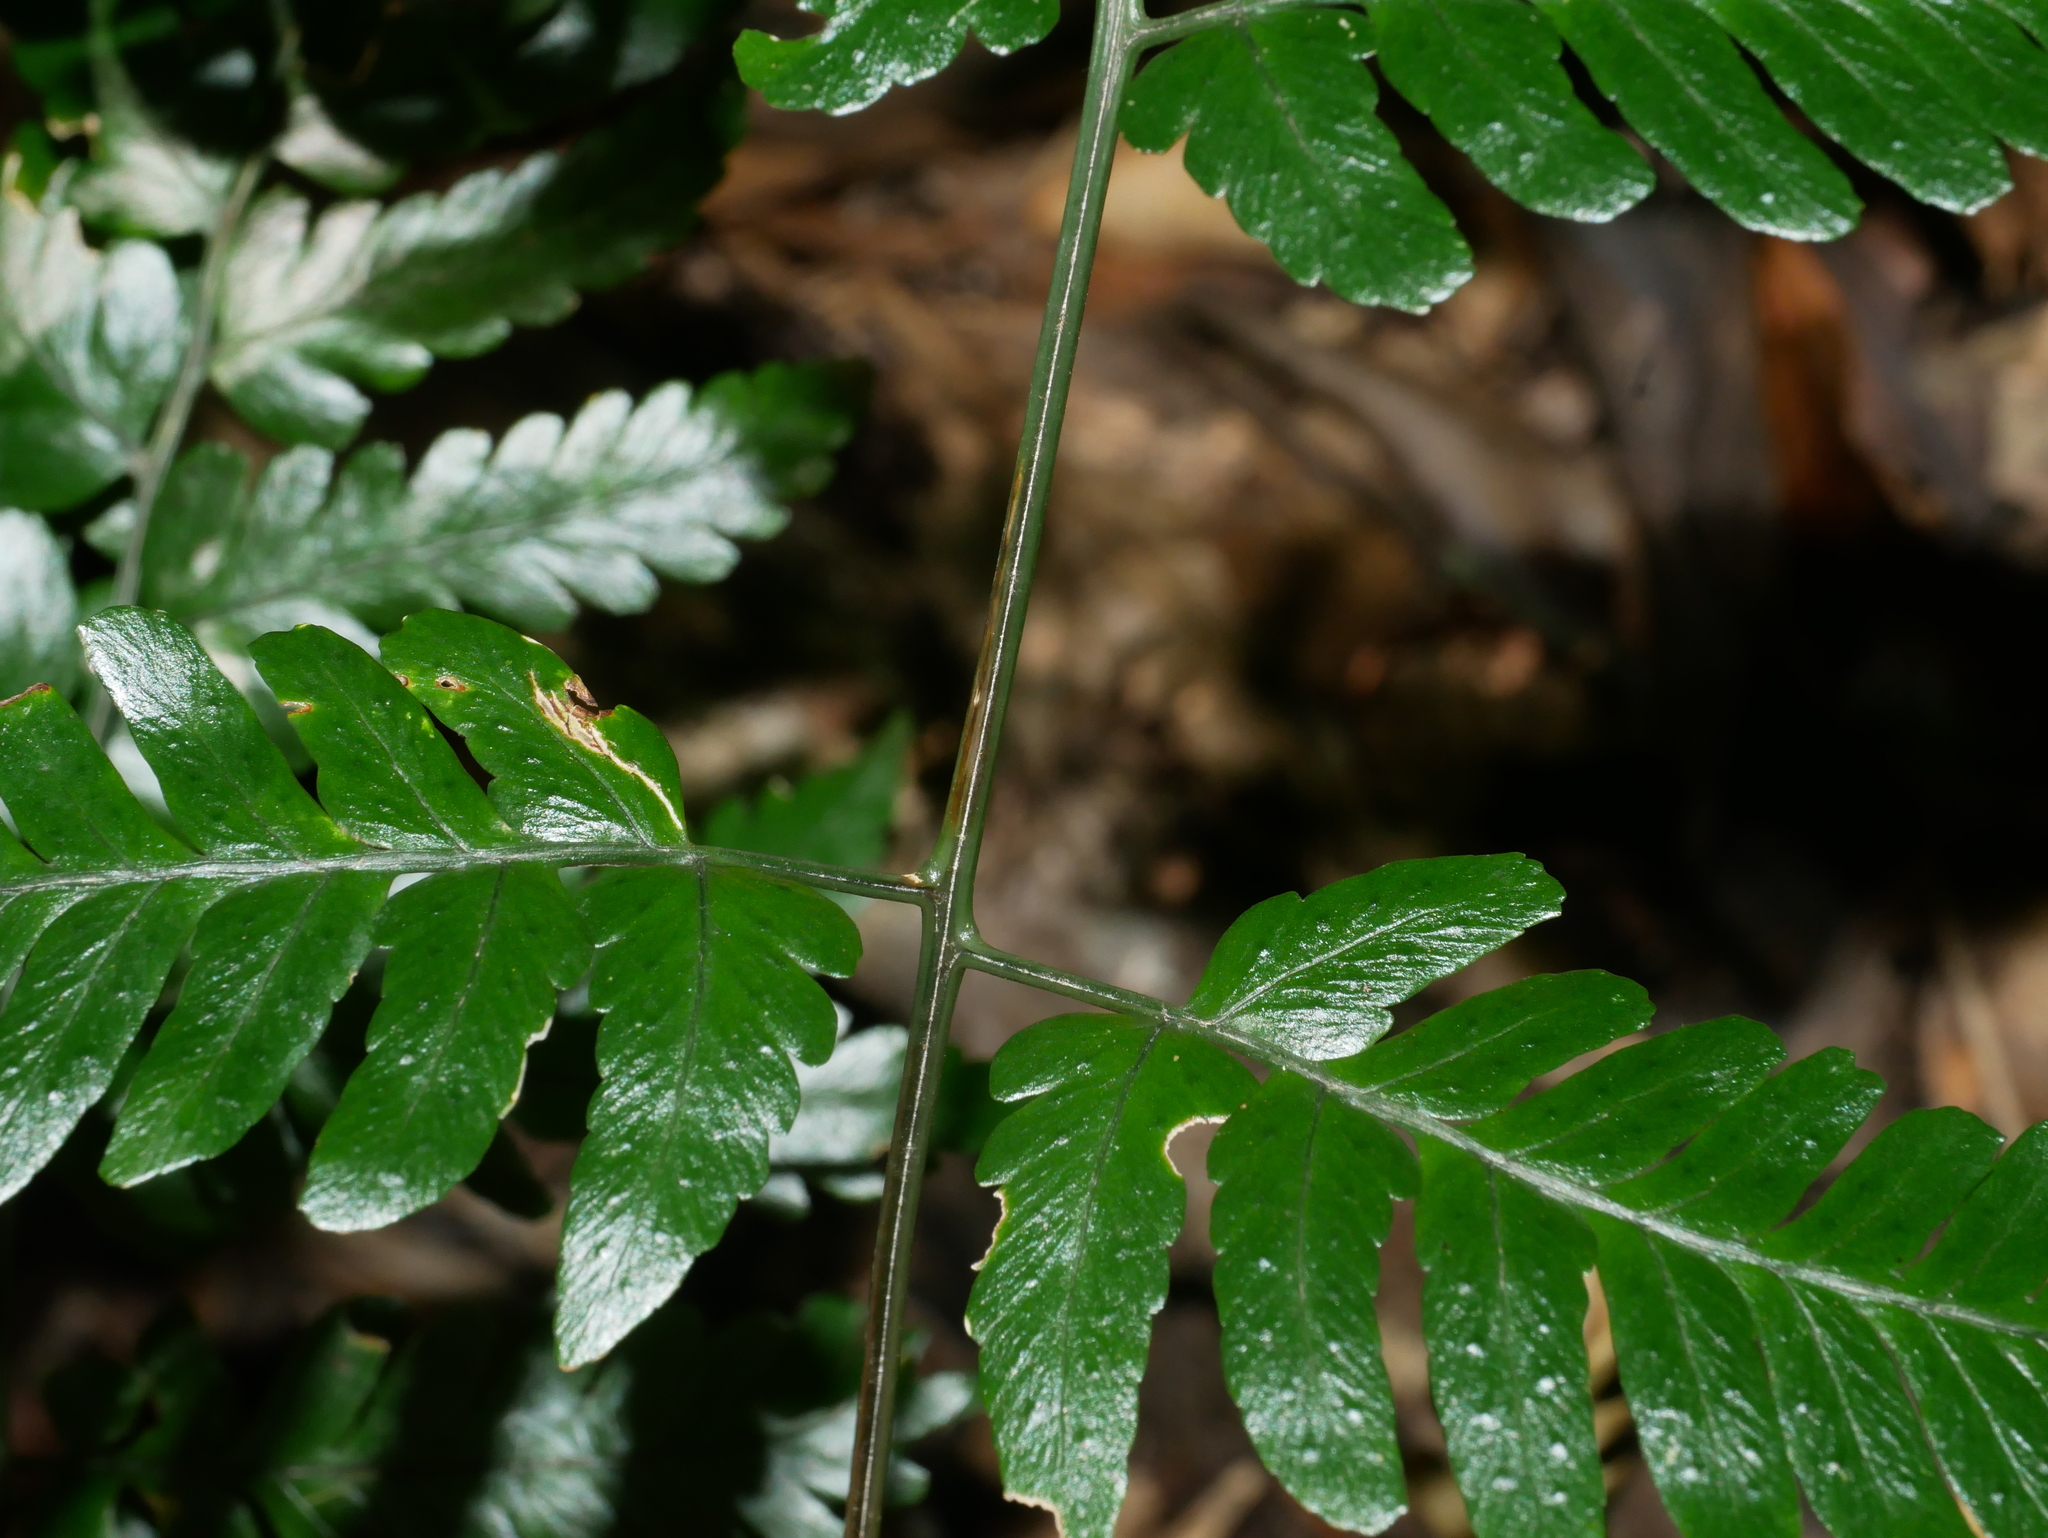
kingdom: Plantae
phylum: Tracheophyta
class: Polypodiopsida
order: Polypodiales
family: Dryopteridaceae
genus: Dryopteris
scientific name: Dryopteris polita
